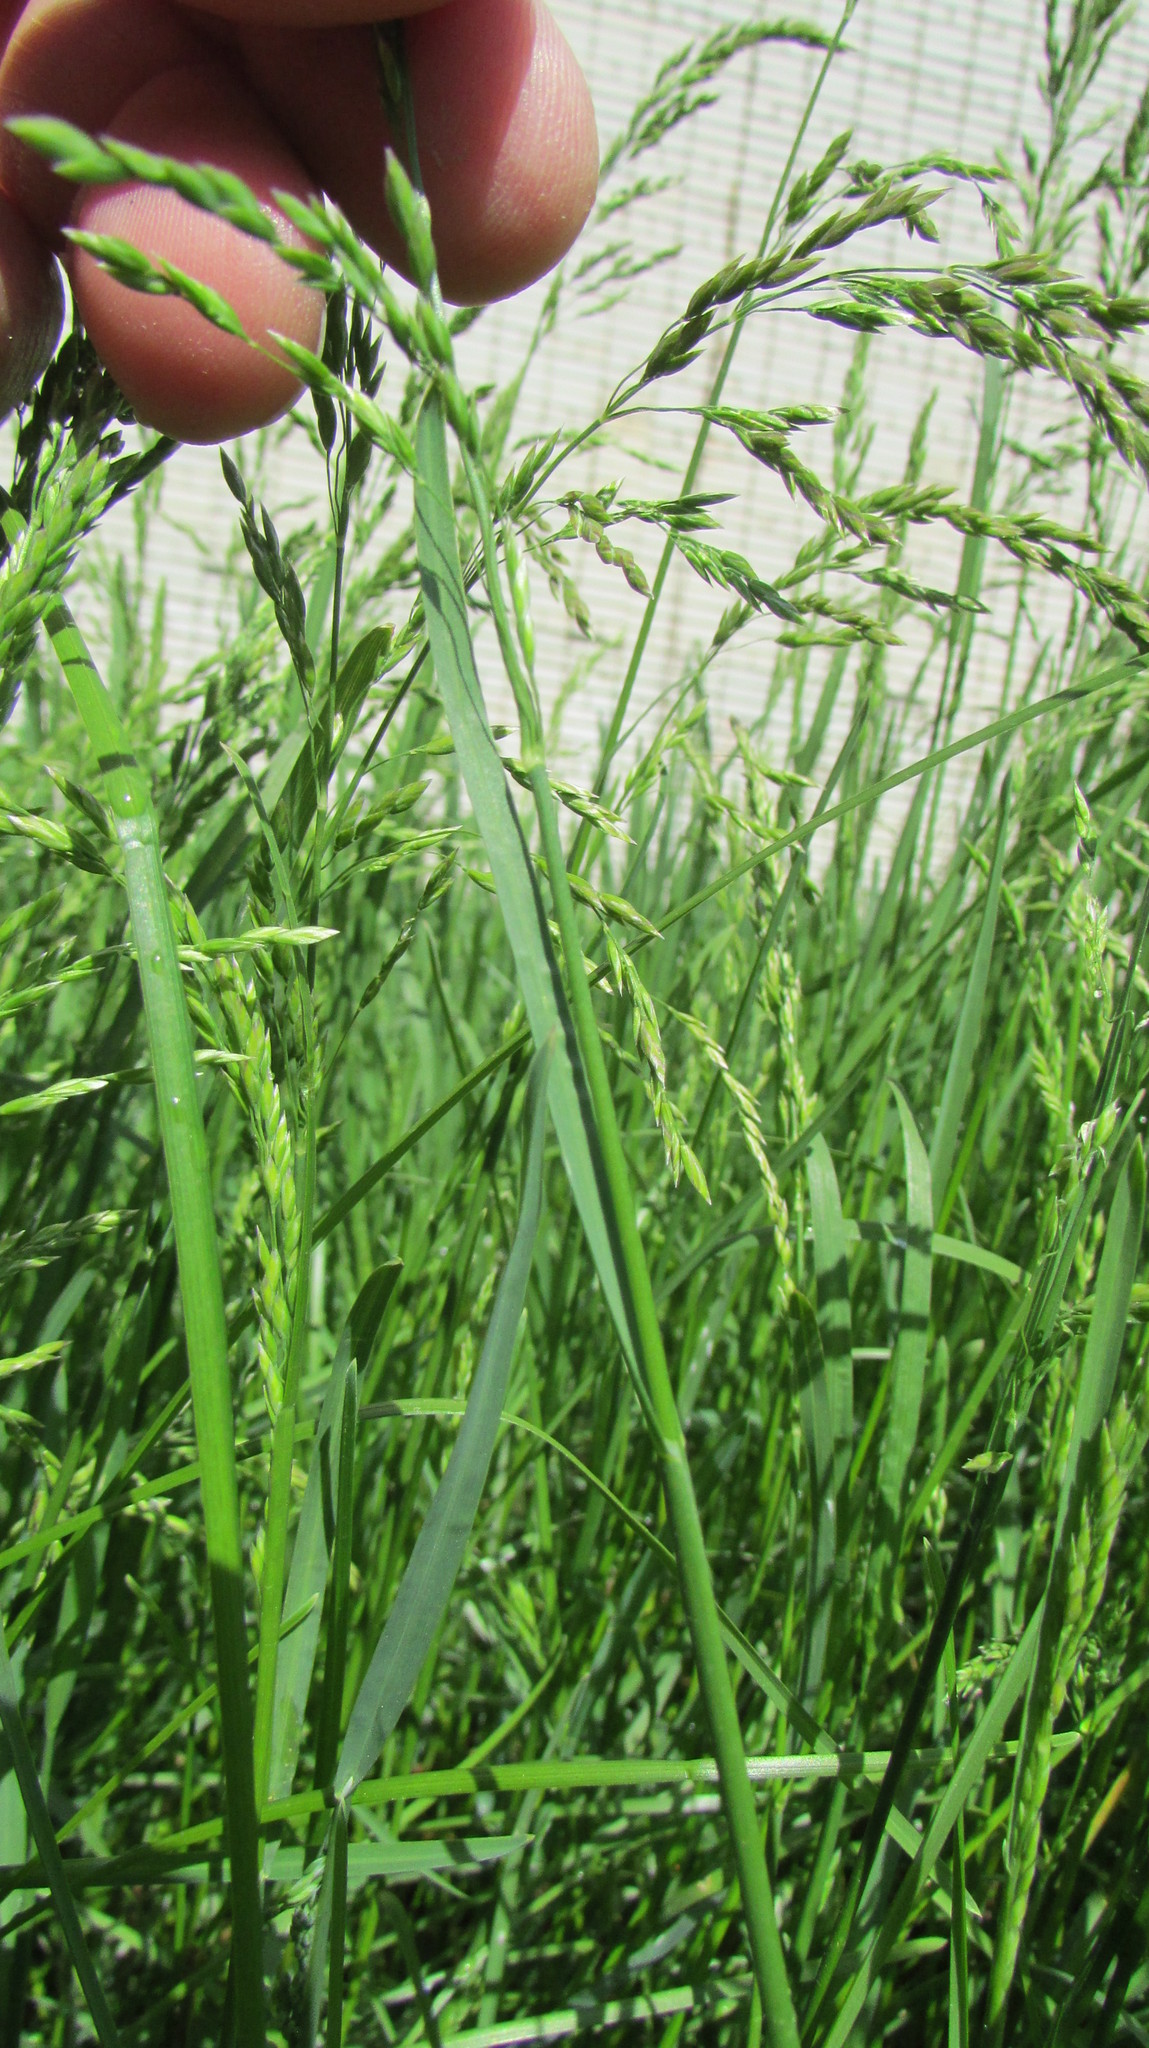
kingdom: Plantae
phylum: Tracheophyta
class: Liliopsida
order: Poales
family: Poaceae
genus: Poa
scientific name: Poa pratensis
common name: Kentucky bluegrass
